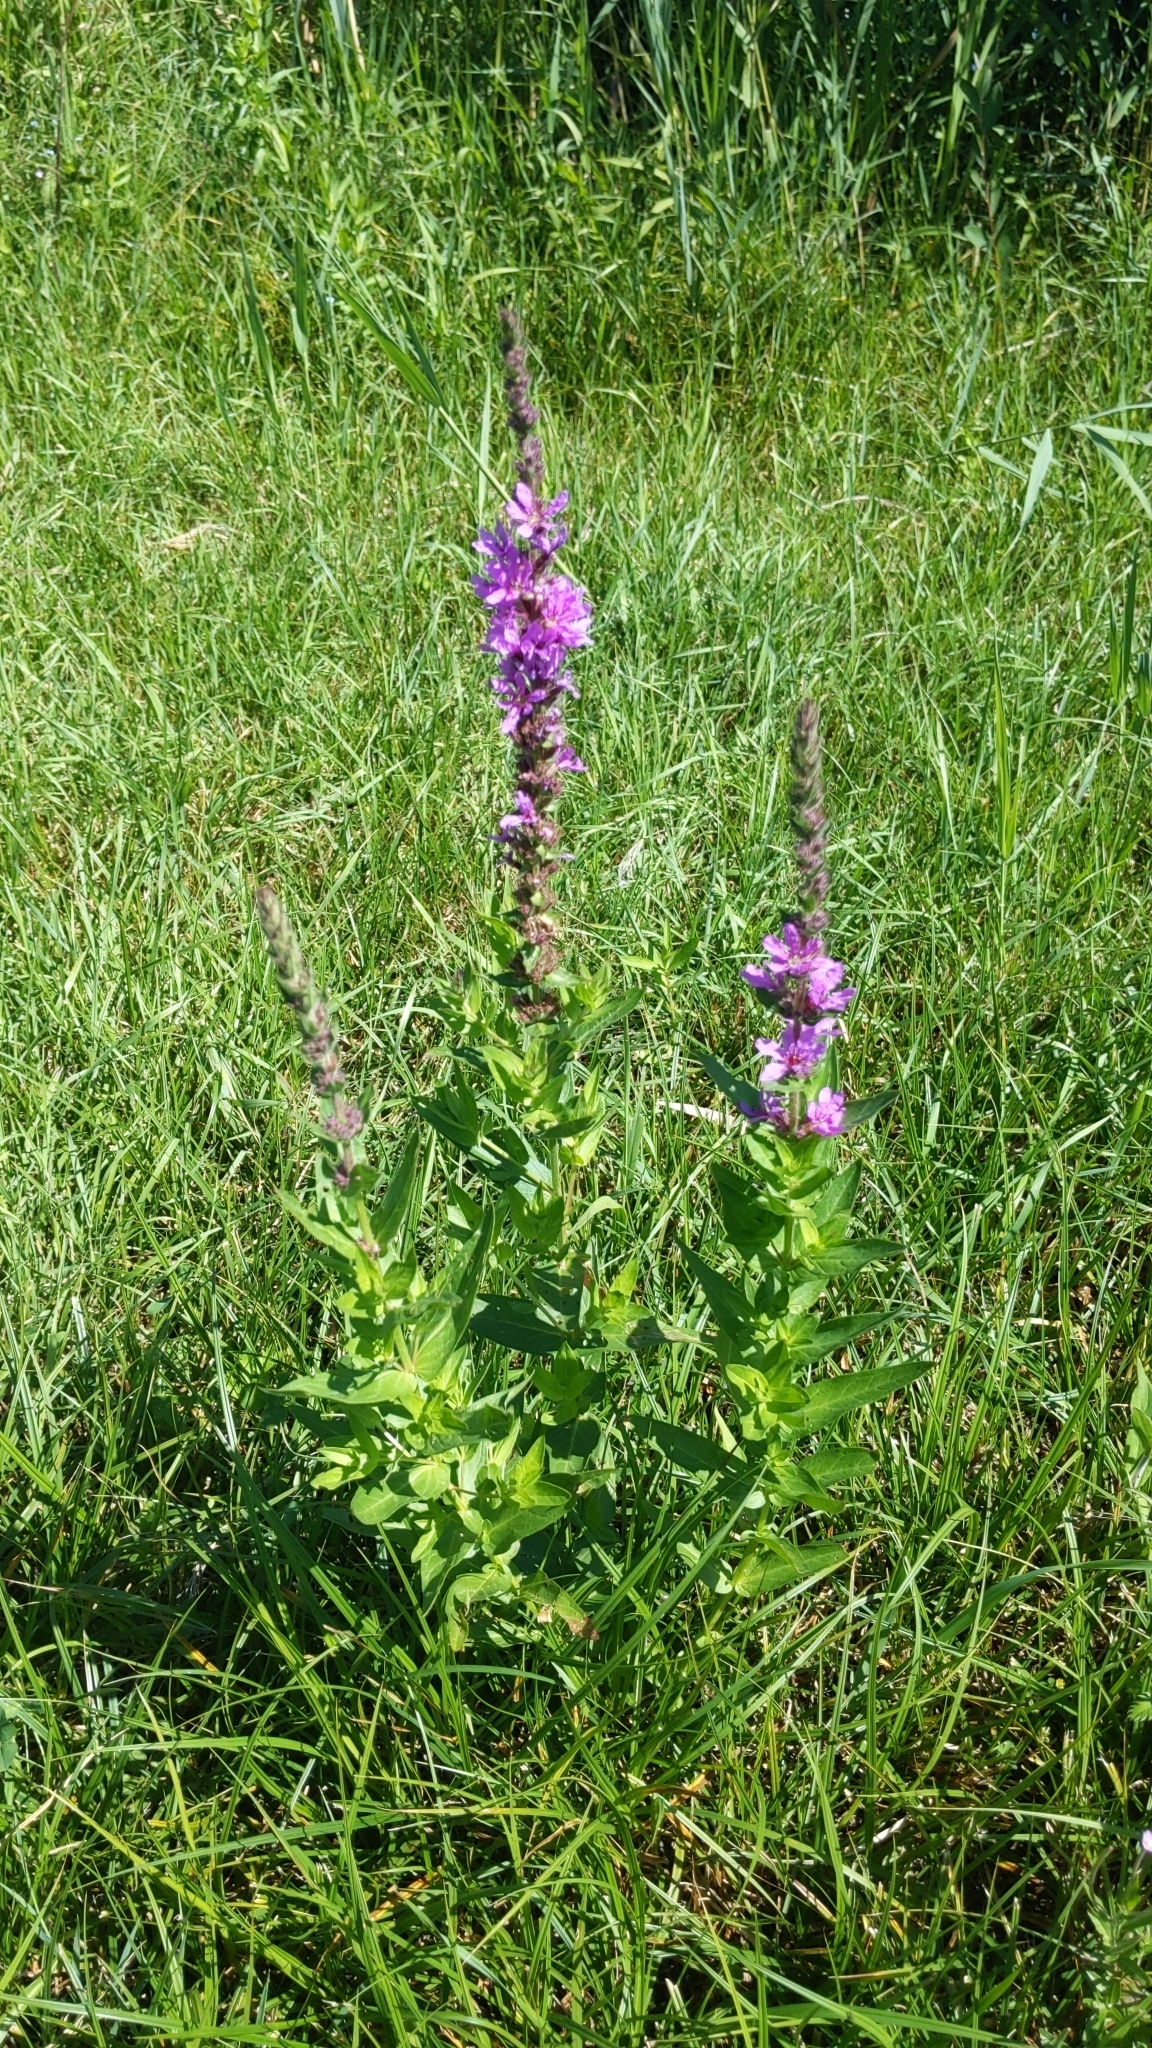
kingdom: Plantae
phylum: Tracheophyta
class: Magnoliopsida
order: Myrtales
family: Lythraceae
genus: Lythrum
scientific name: Lythrum salicaria
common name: Purple loosestrife
